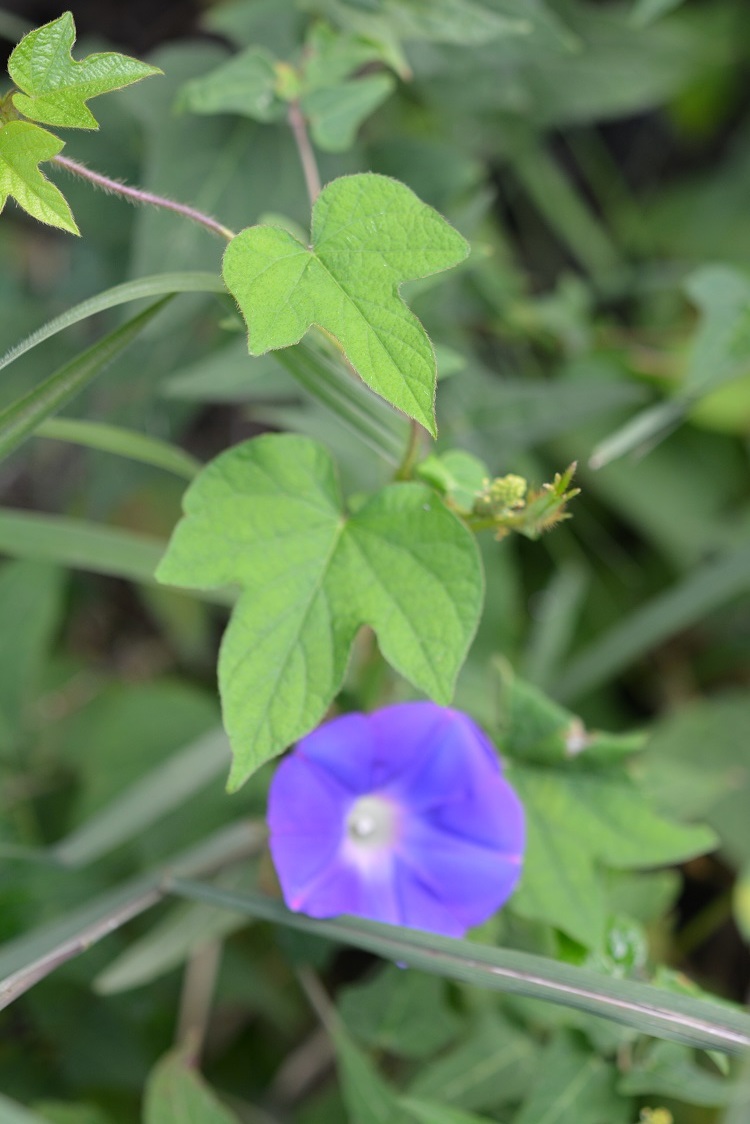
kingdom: Plantae
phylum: Tracheophyta
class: Magnoliopsida
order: Solanales
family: Convolvulaceae
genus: Ipomoea
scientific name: Ipomoea hederacea
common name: Ivy-leaved morning-glory
